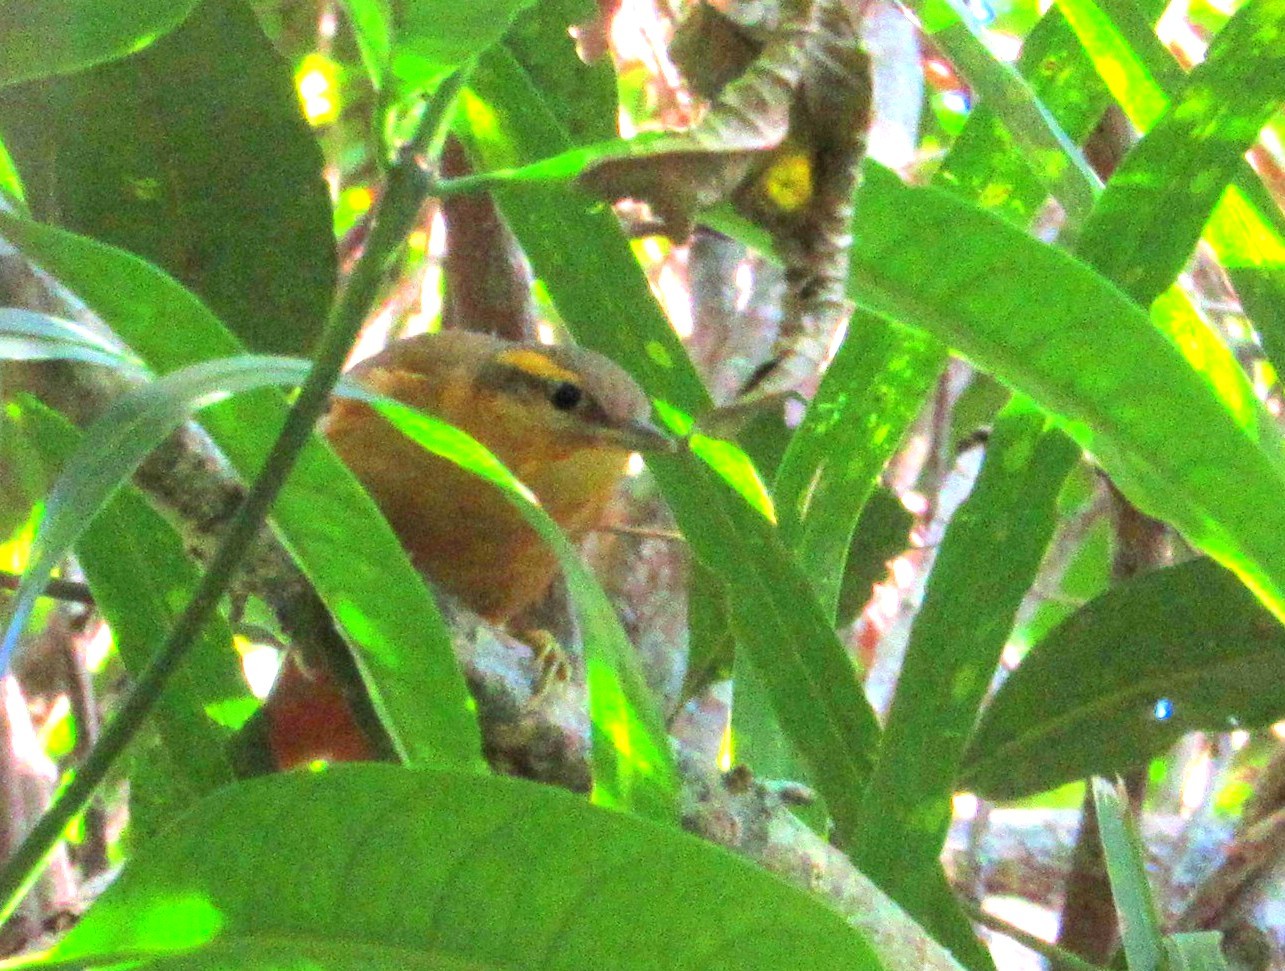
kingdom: Animalia
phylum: Chordata
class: Aves
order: Passeriformes
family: Furnariidae
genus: Philydor
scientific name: Philydor lichtensteini
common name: Ochre-breasted foliage-gleaner
